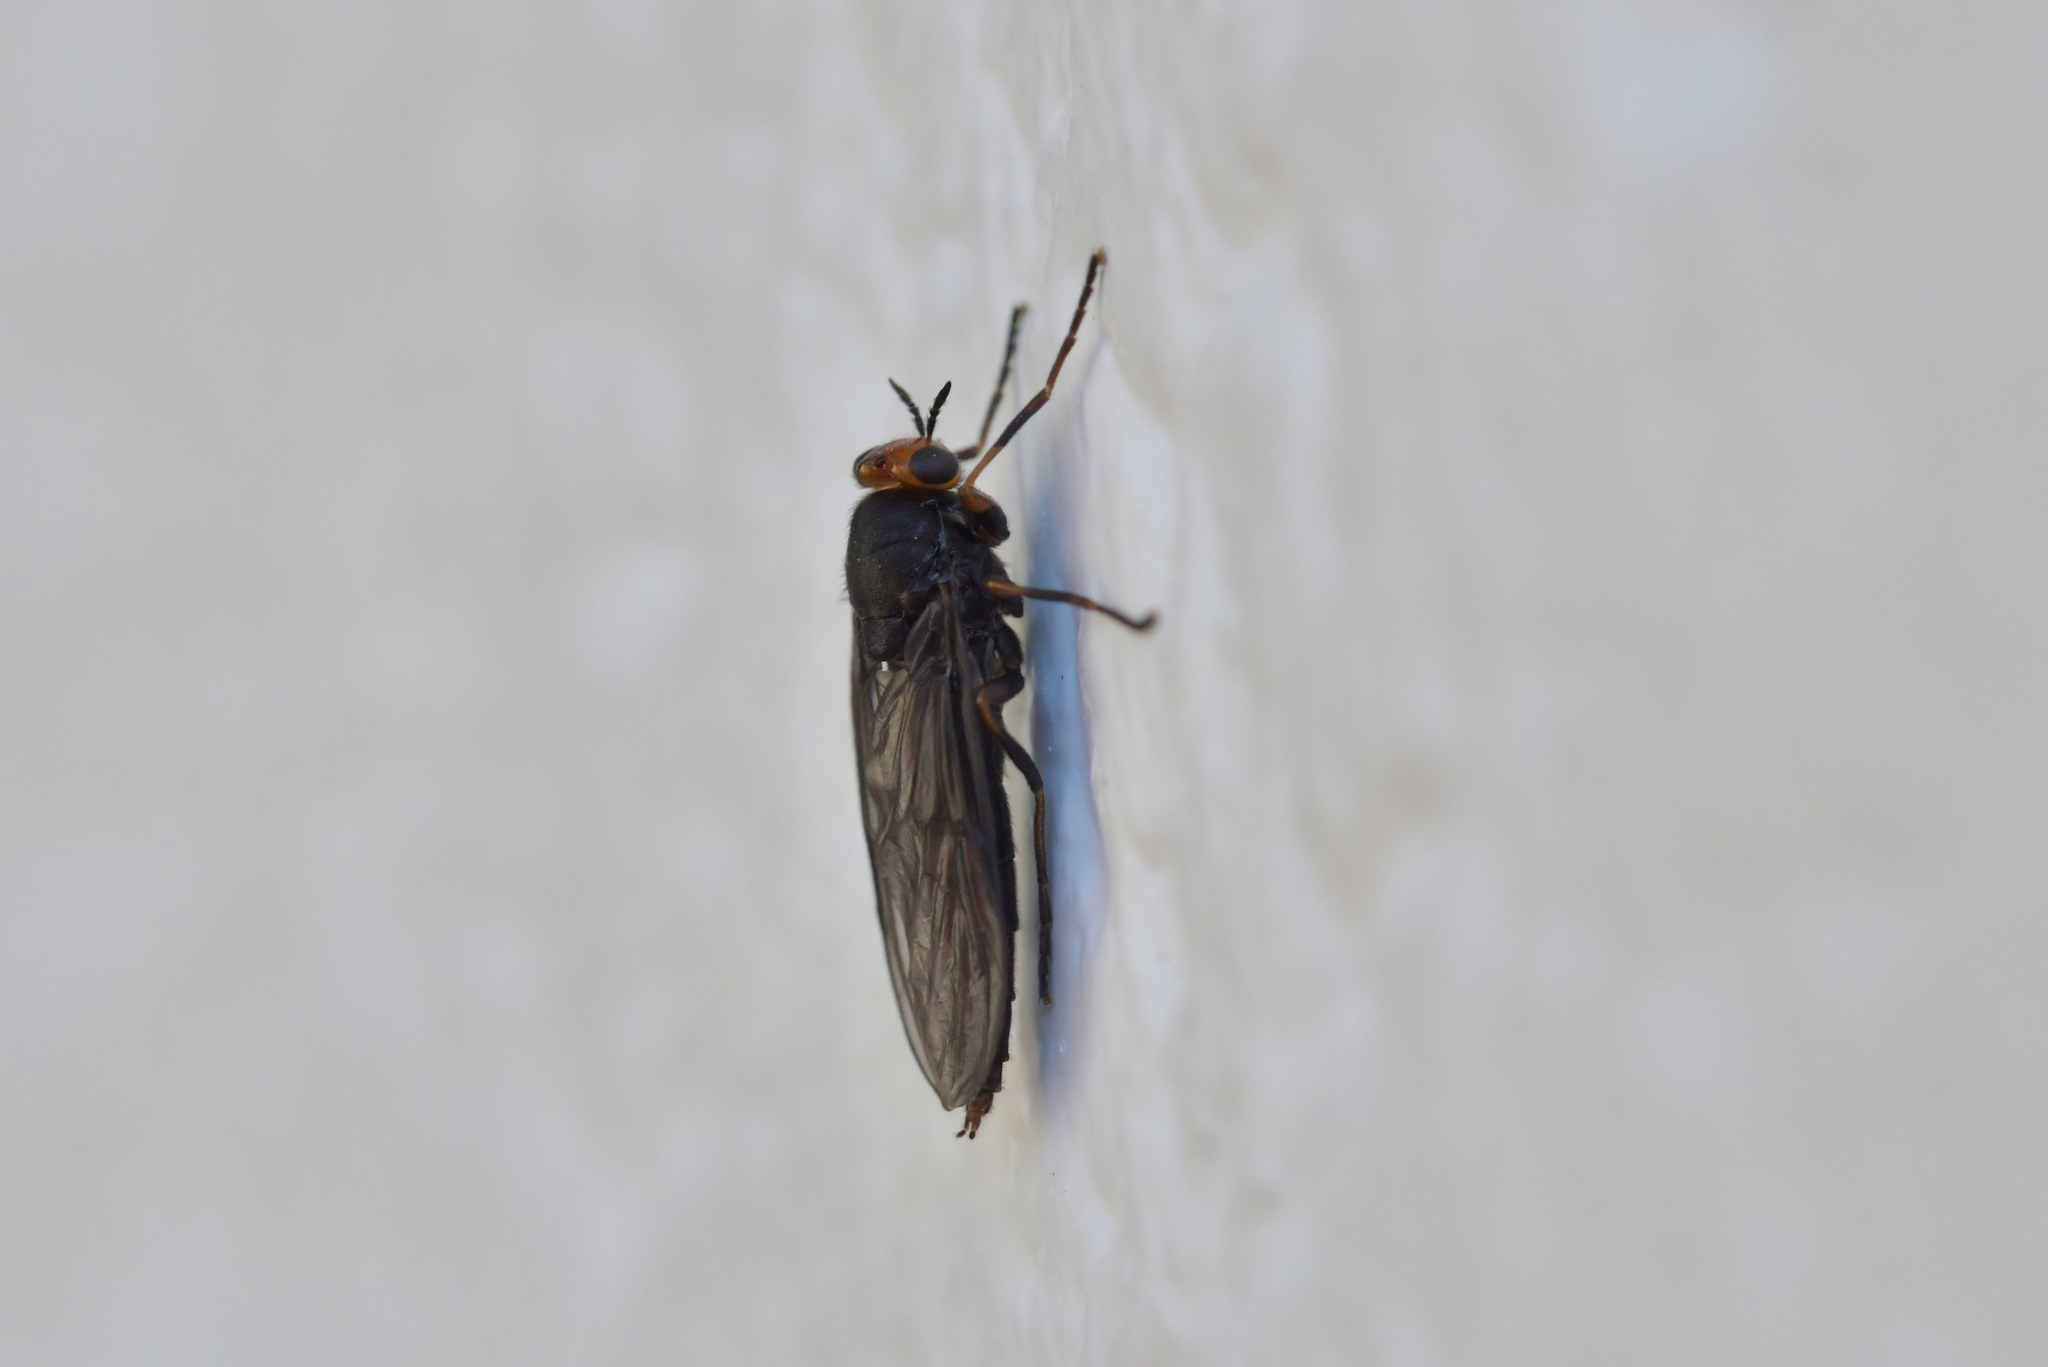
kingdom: Animalia
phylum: Arthropoda
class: Insecta
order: Diptera
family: Stratiomyidae
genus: Inopus
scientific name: Inopus rubriceps
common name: Soldier fly
